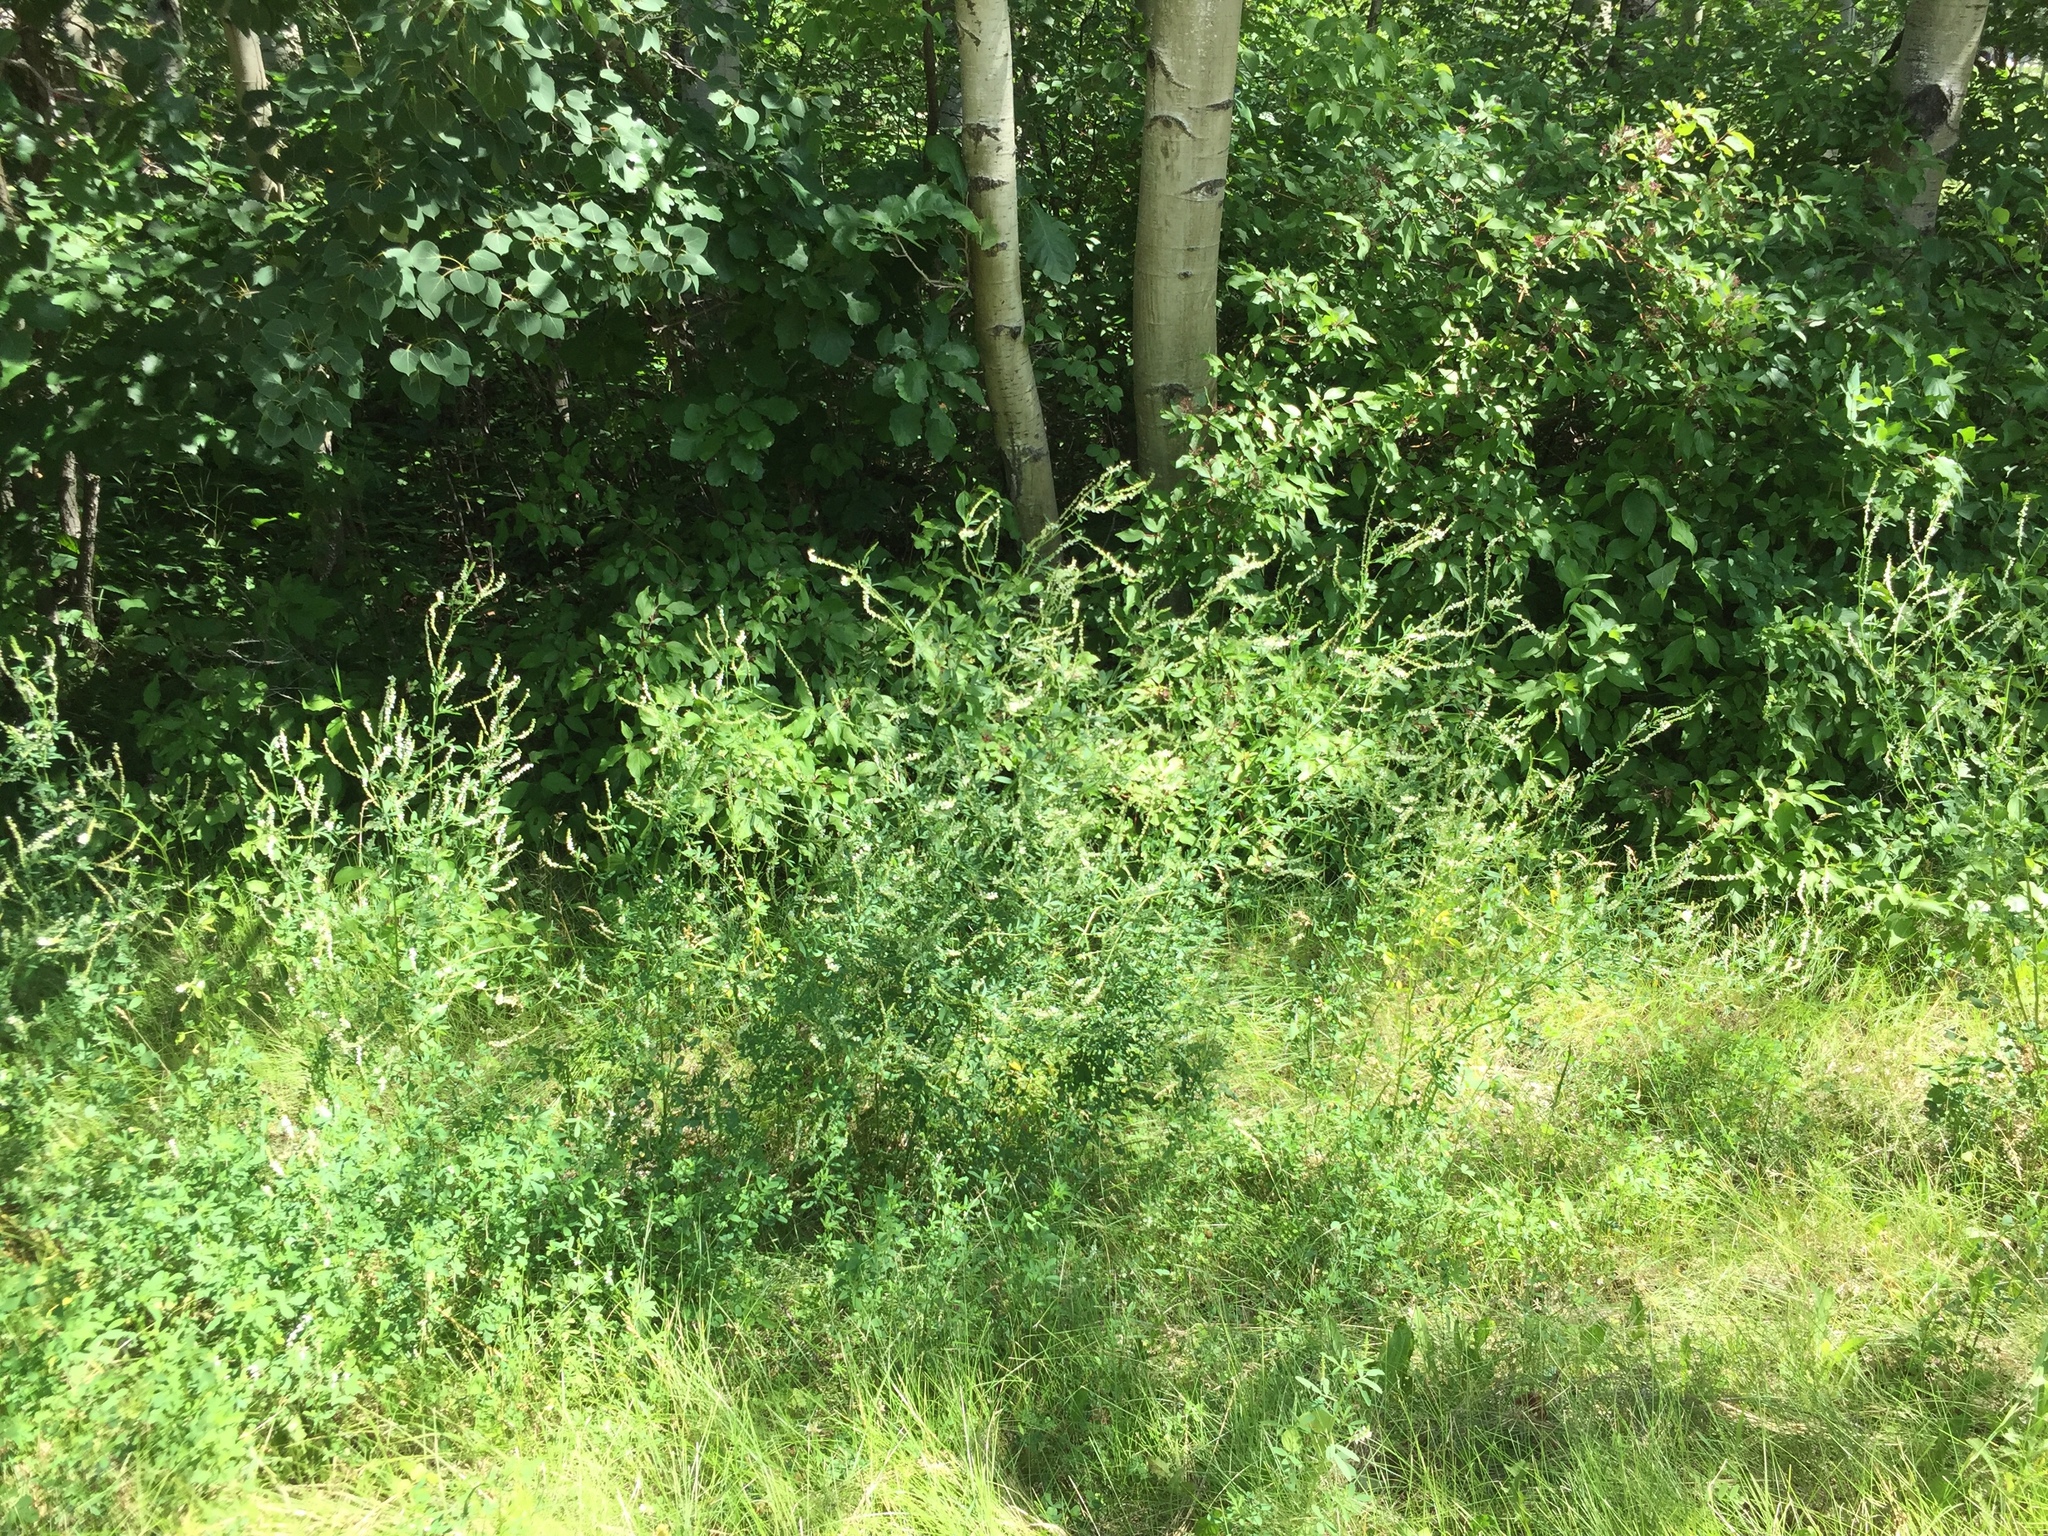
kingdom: Plantae
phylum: Tracheophyta
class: Magnoliopsida
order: Fabales
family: Fabaceae
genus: Melilotus
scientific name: Melilotus albus
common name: White melilot
